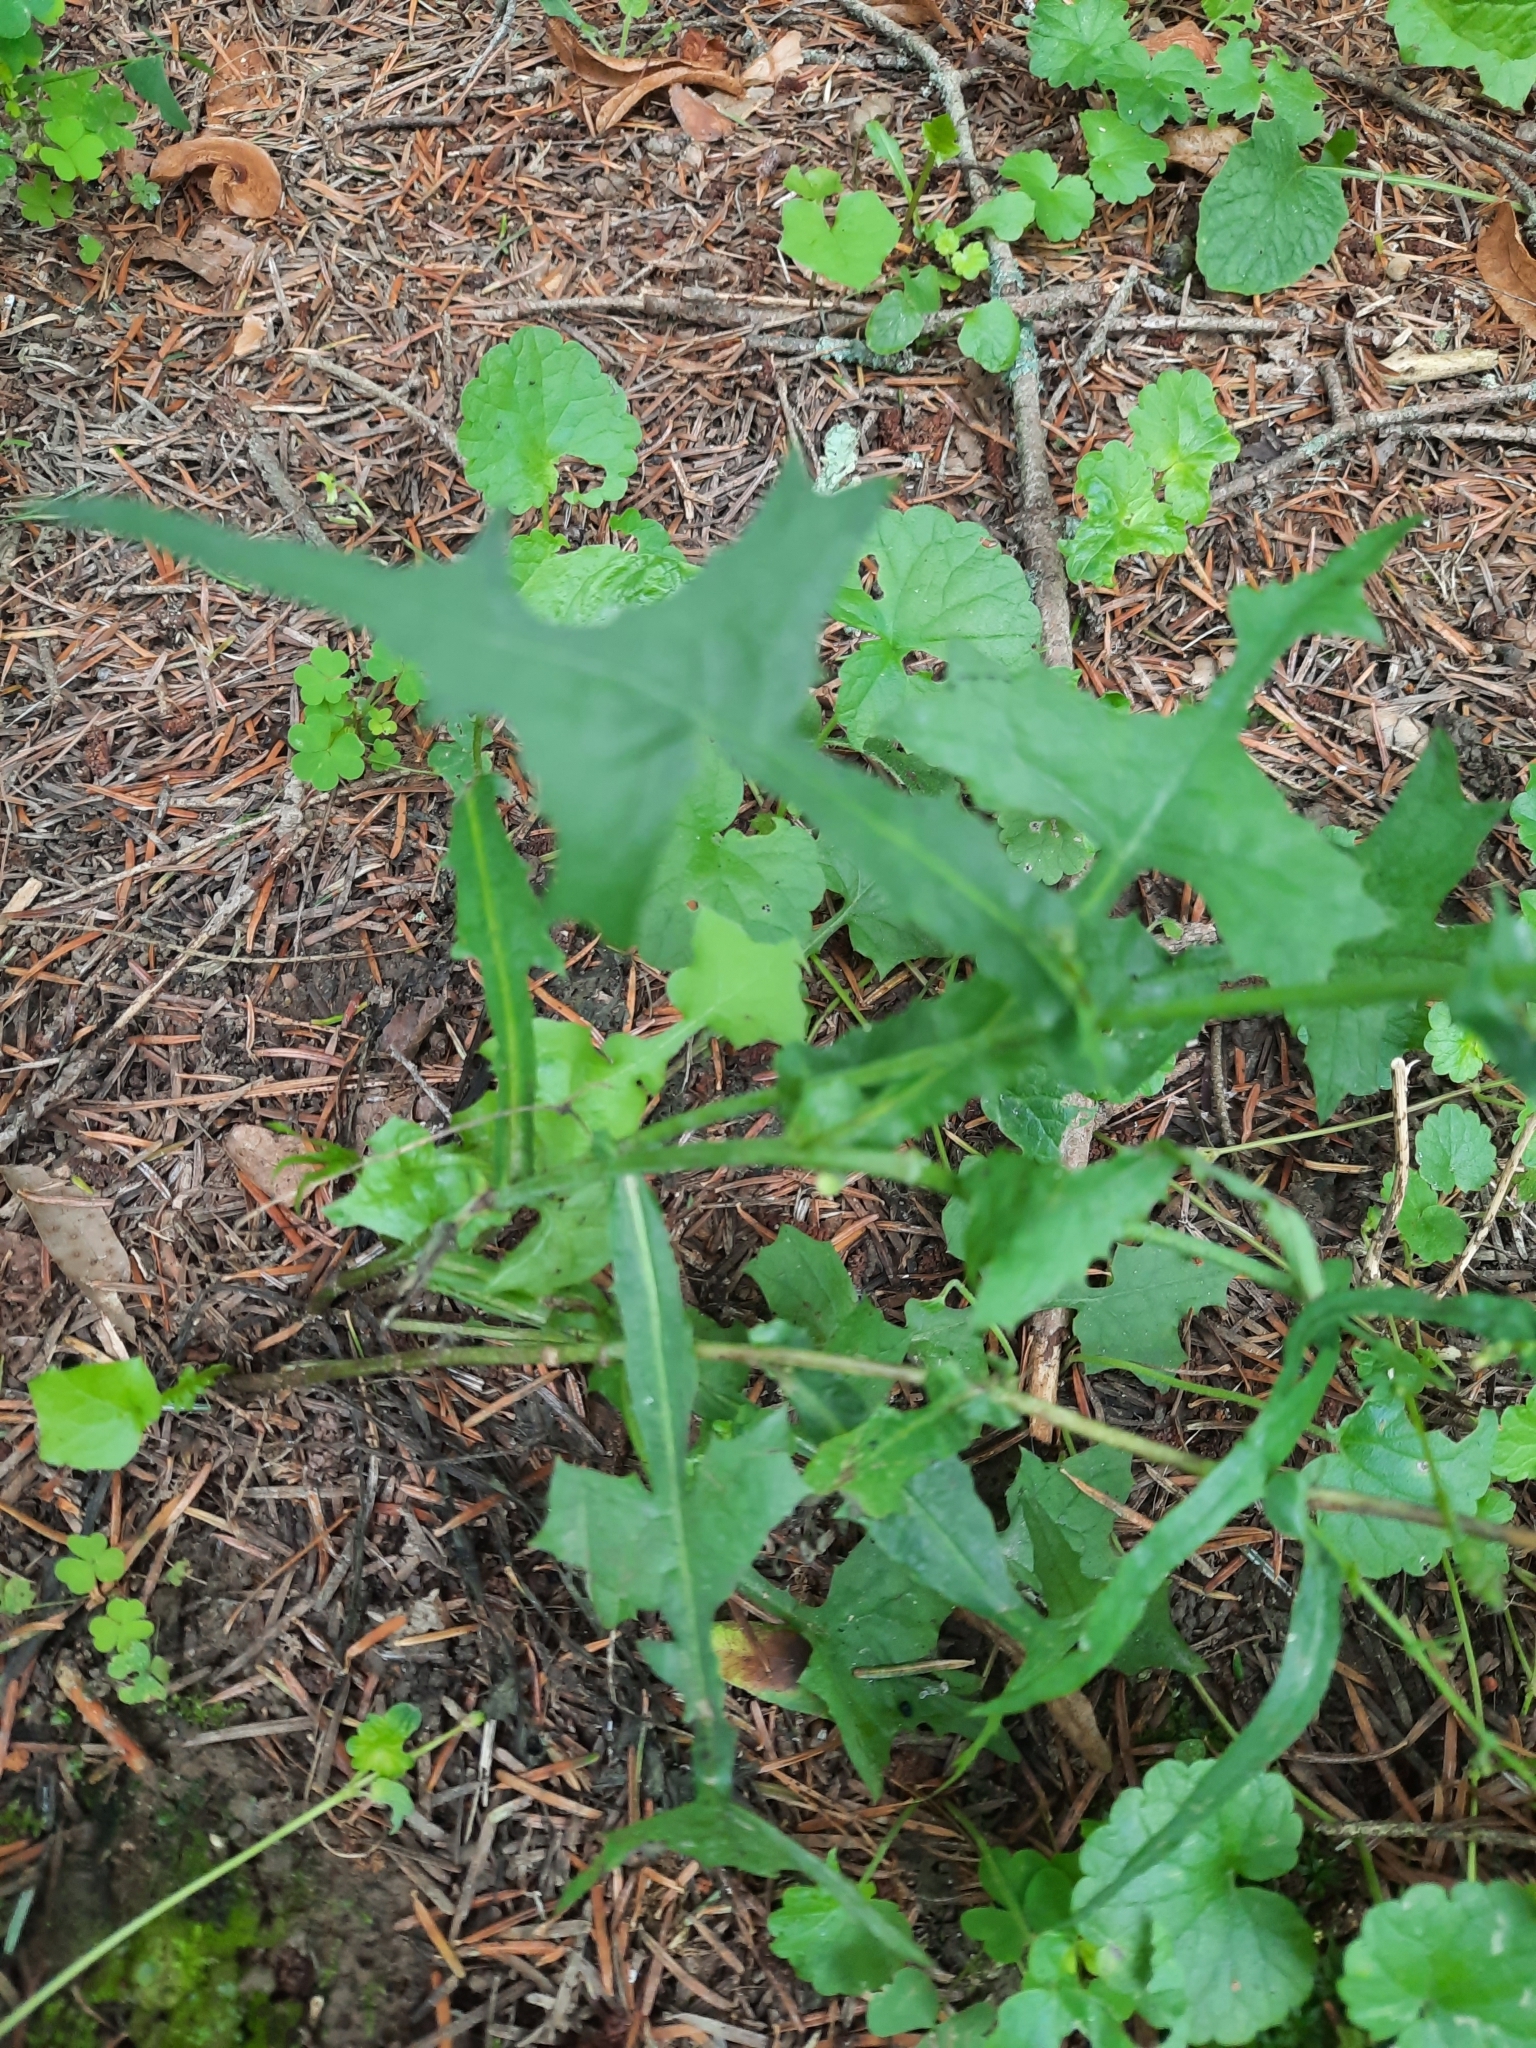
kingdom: Plantae
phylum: Tracheophyta
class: Magnoliopsida
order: Asterales
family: Asteraceae
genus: Mycelis
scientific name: Mycelis muralis
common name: Wall lettuce
